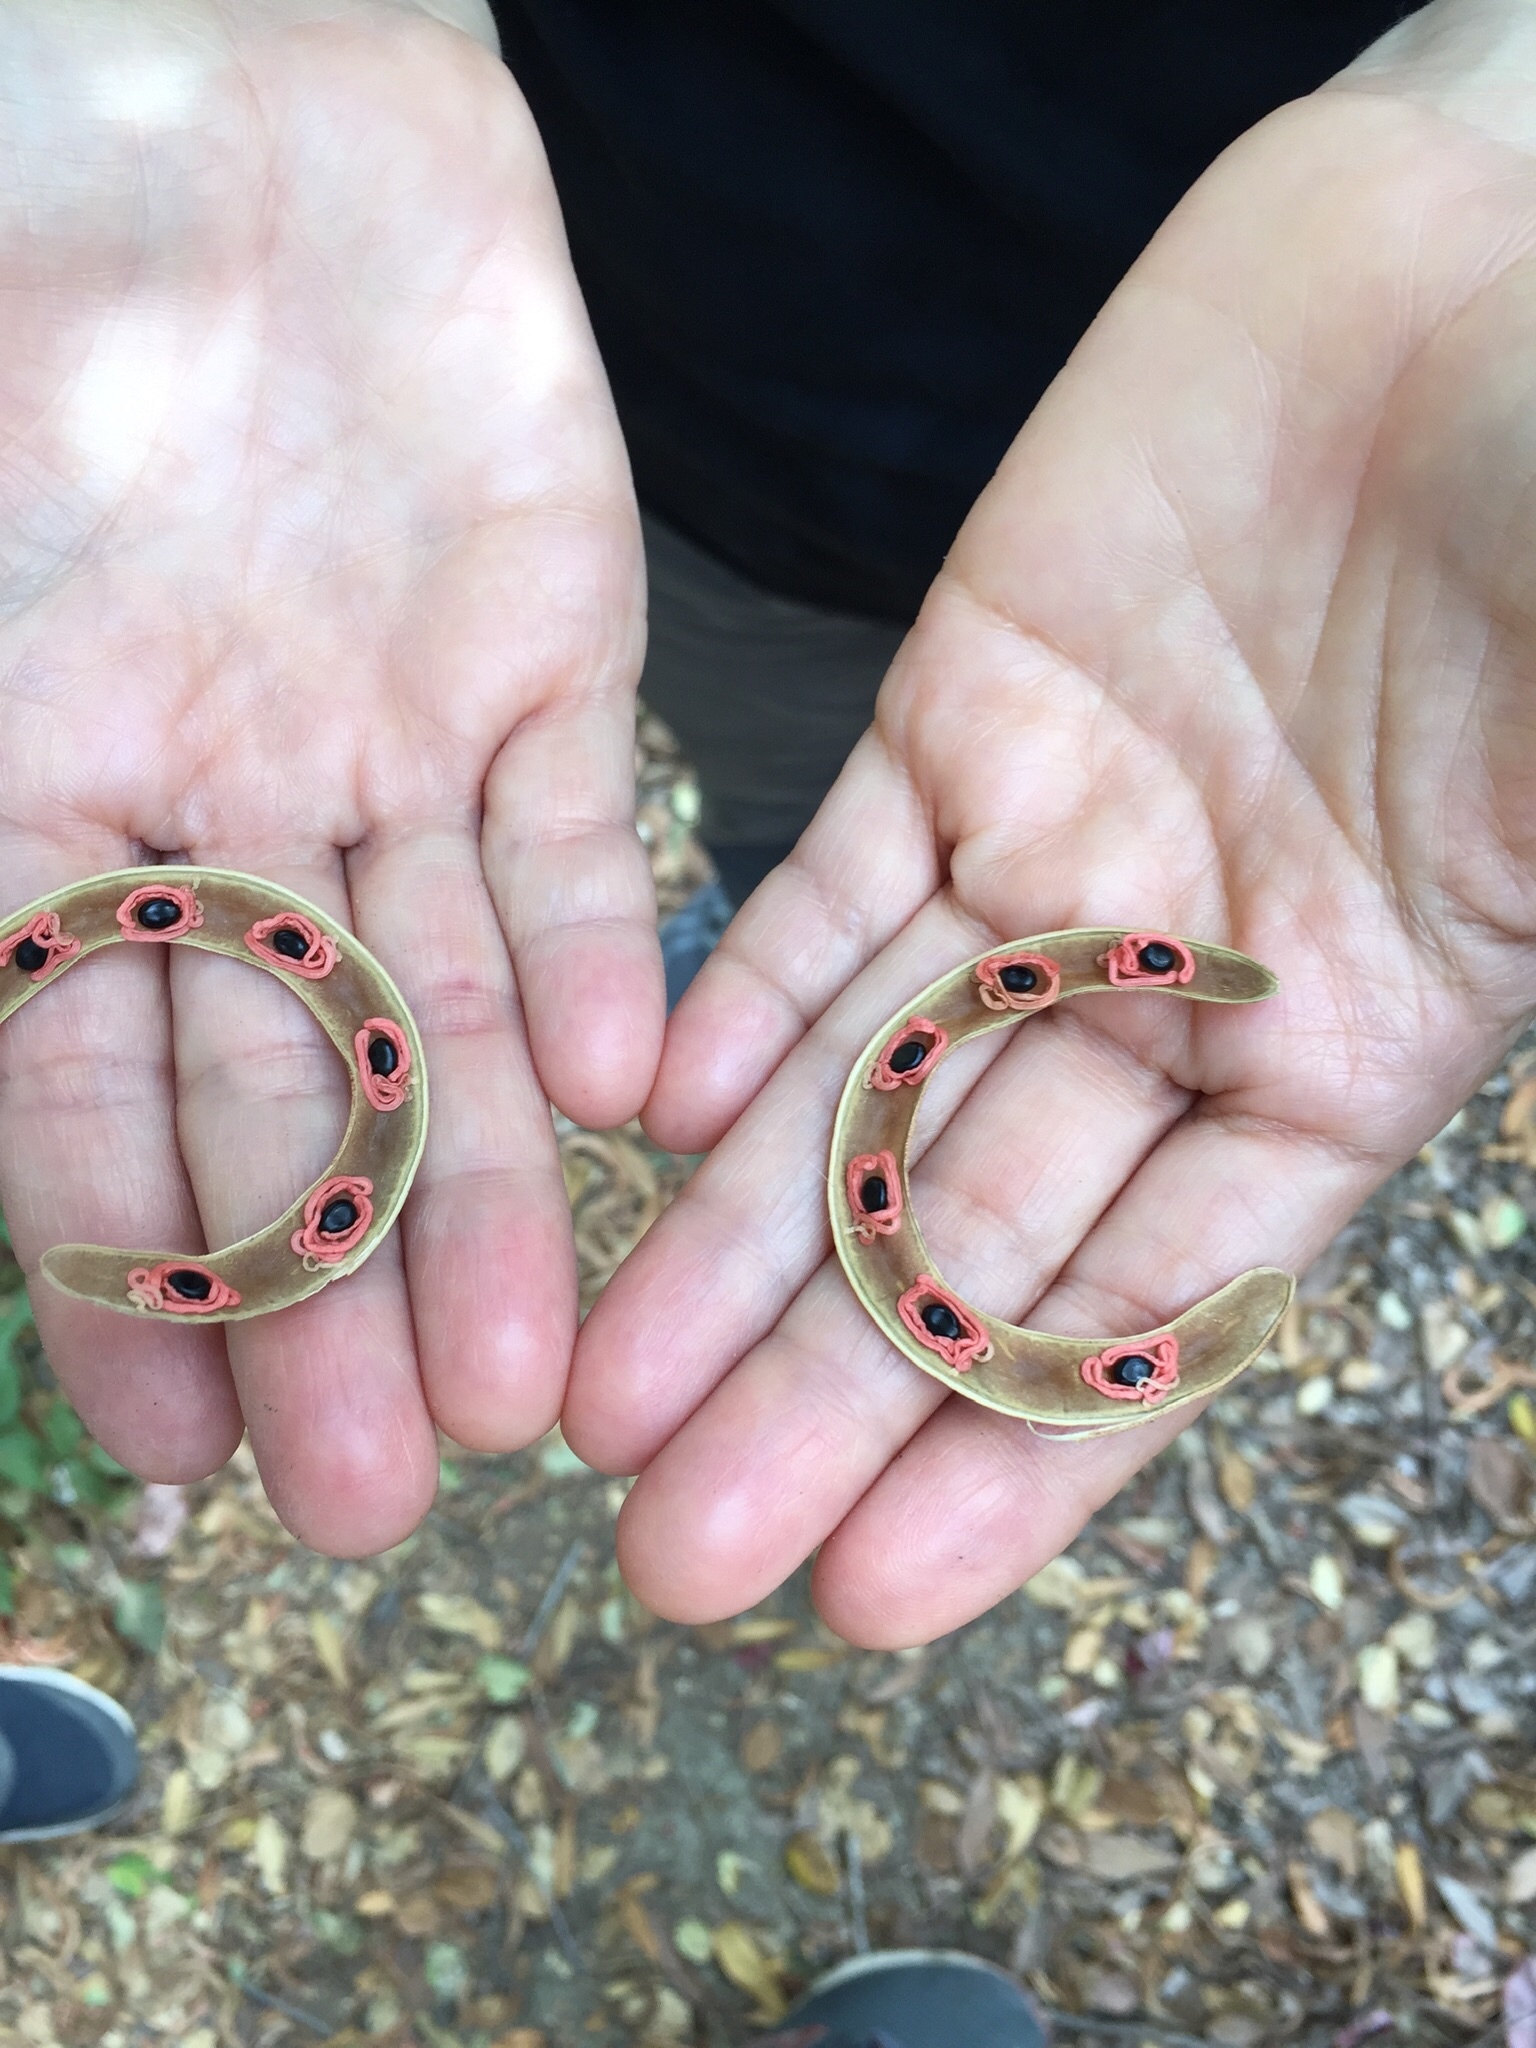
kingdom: Plantae
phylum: Tracheophyta
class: Magnoliopsida
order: Fabales
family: Fabaceae
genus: Acacia
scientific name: Acacia melanoxylon
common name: Blackwood
